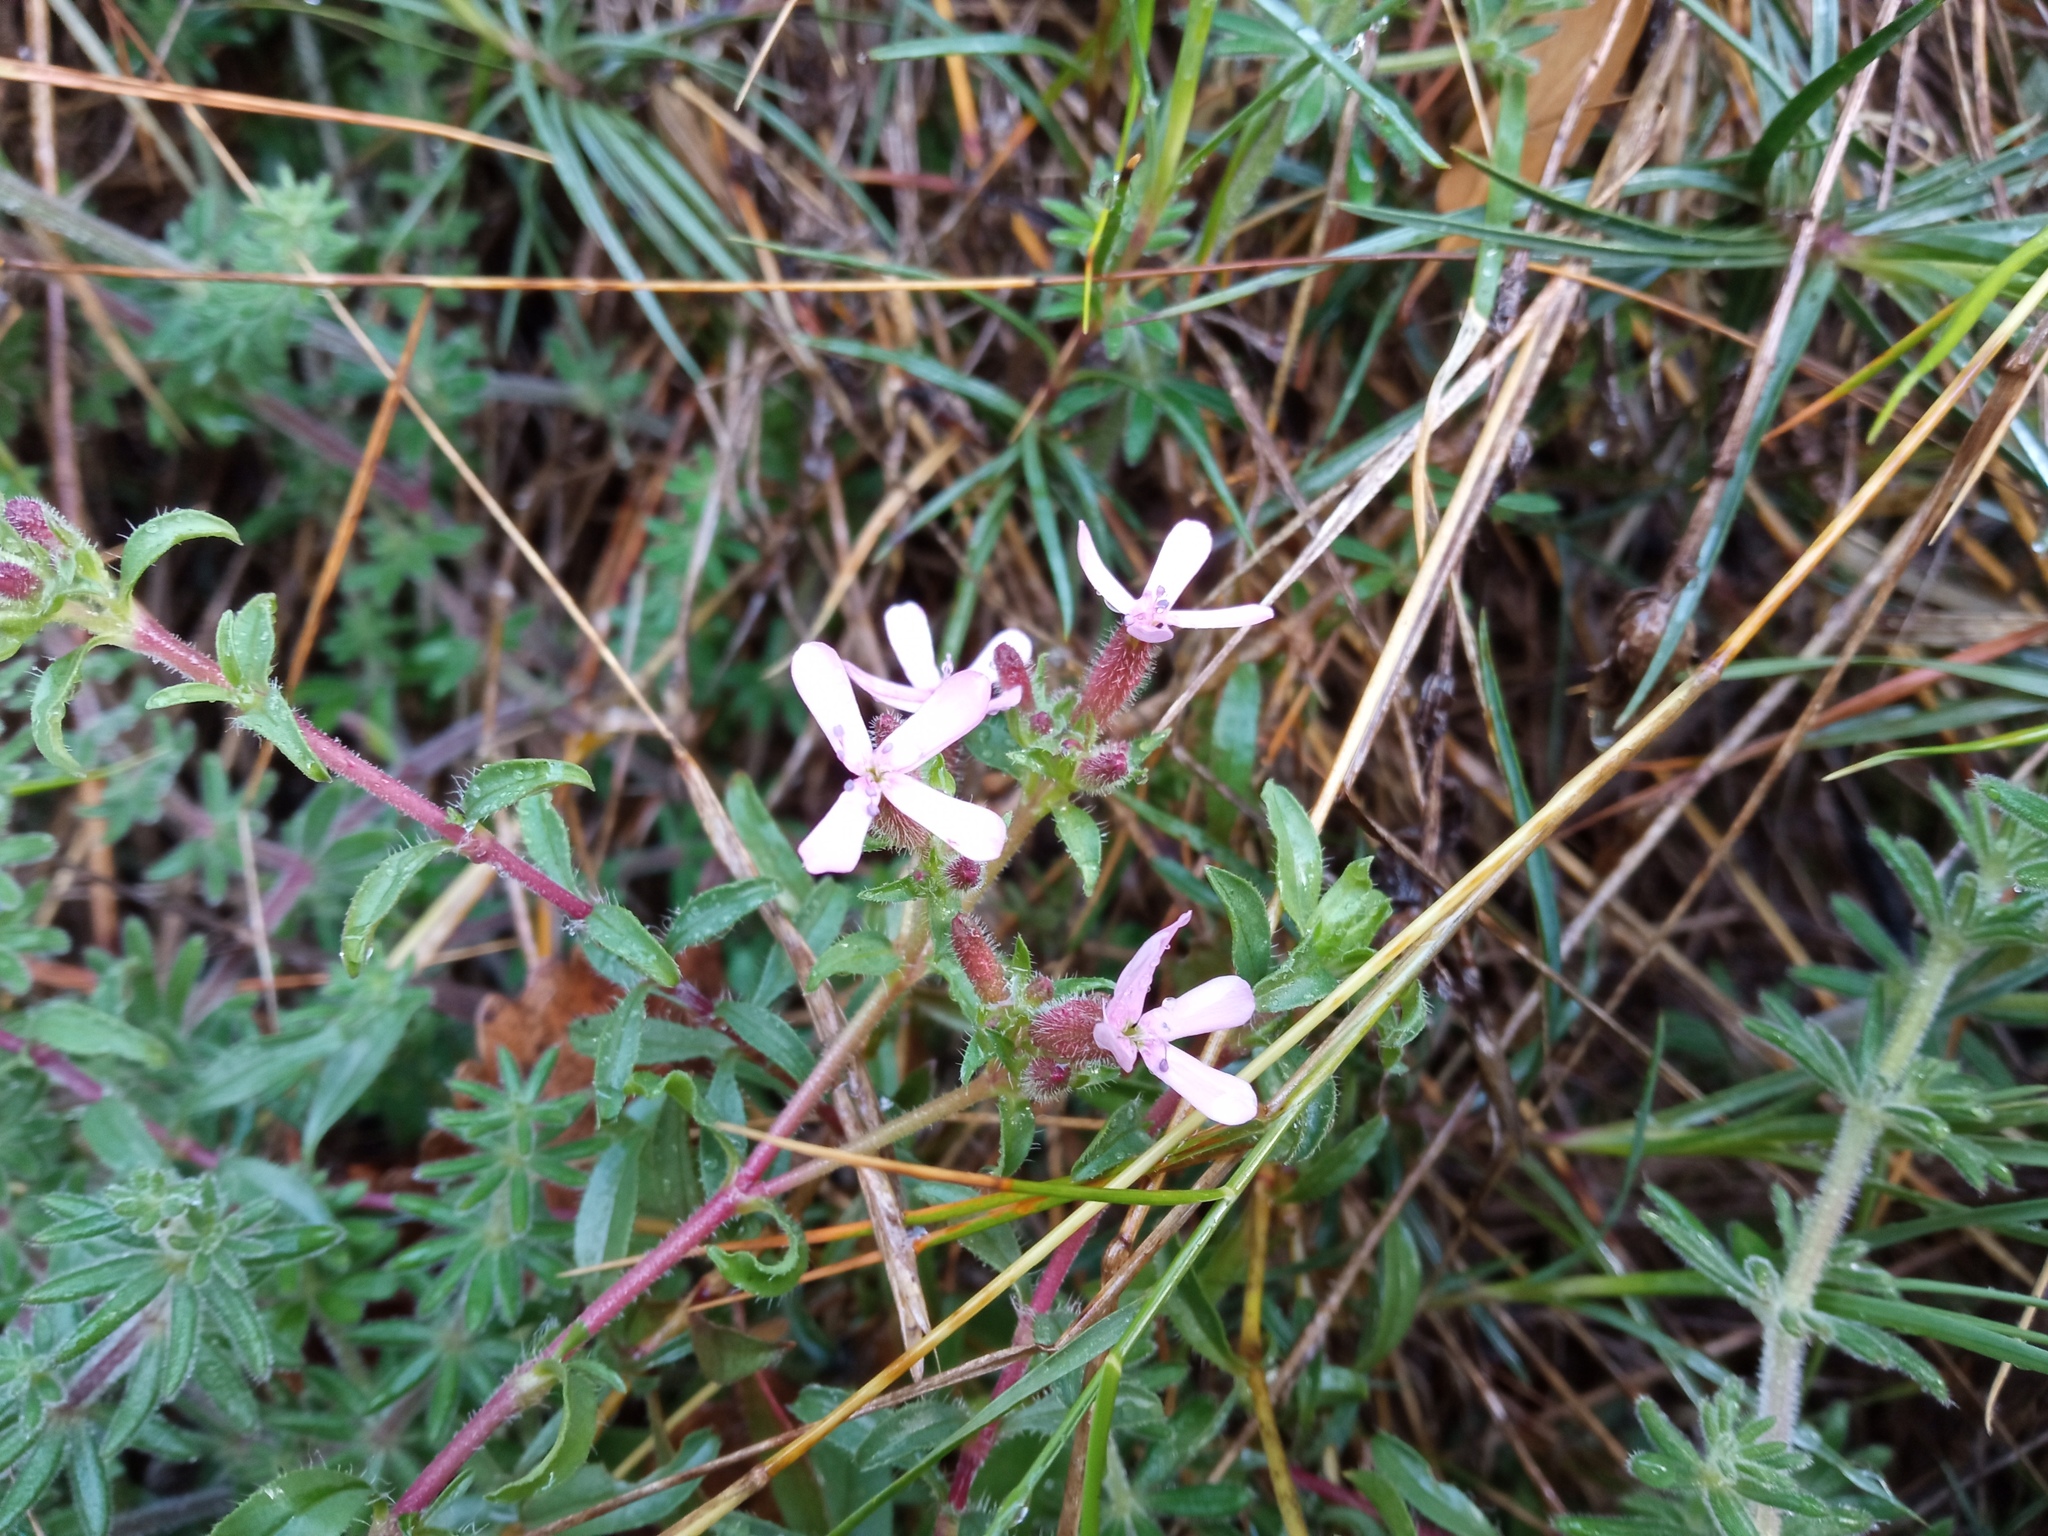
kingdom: Plantae
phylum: Tracheophyta
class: Magnoliopsida
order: Caryophyllales
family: Caryophyllaceae
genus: Saponaria
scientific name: Saponaria ocymoides
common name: Rock soapwort
